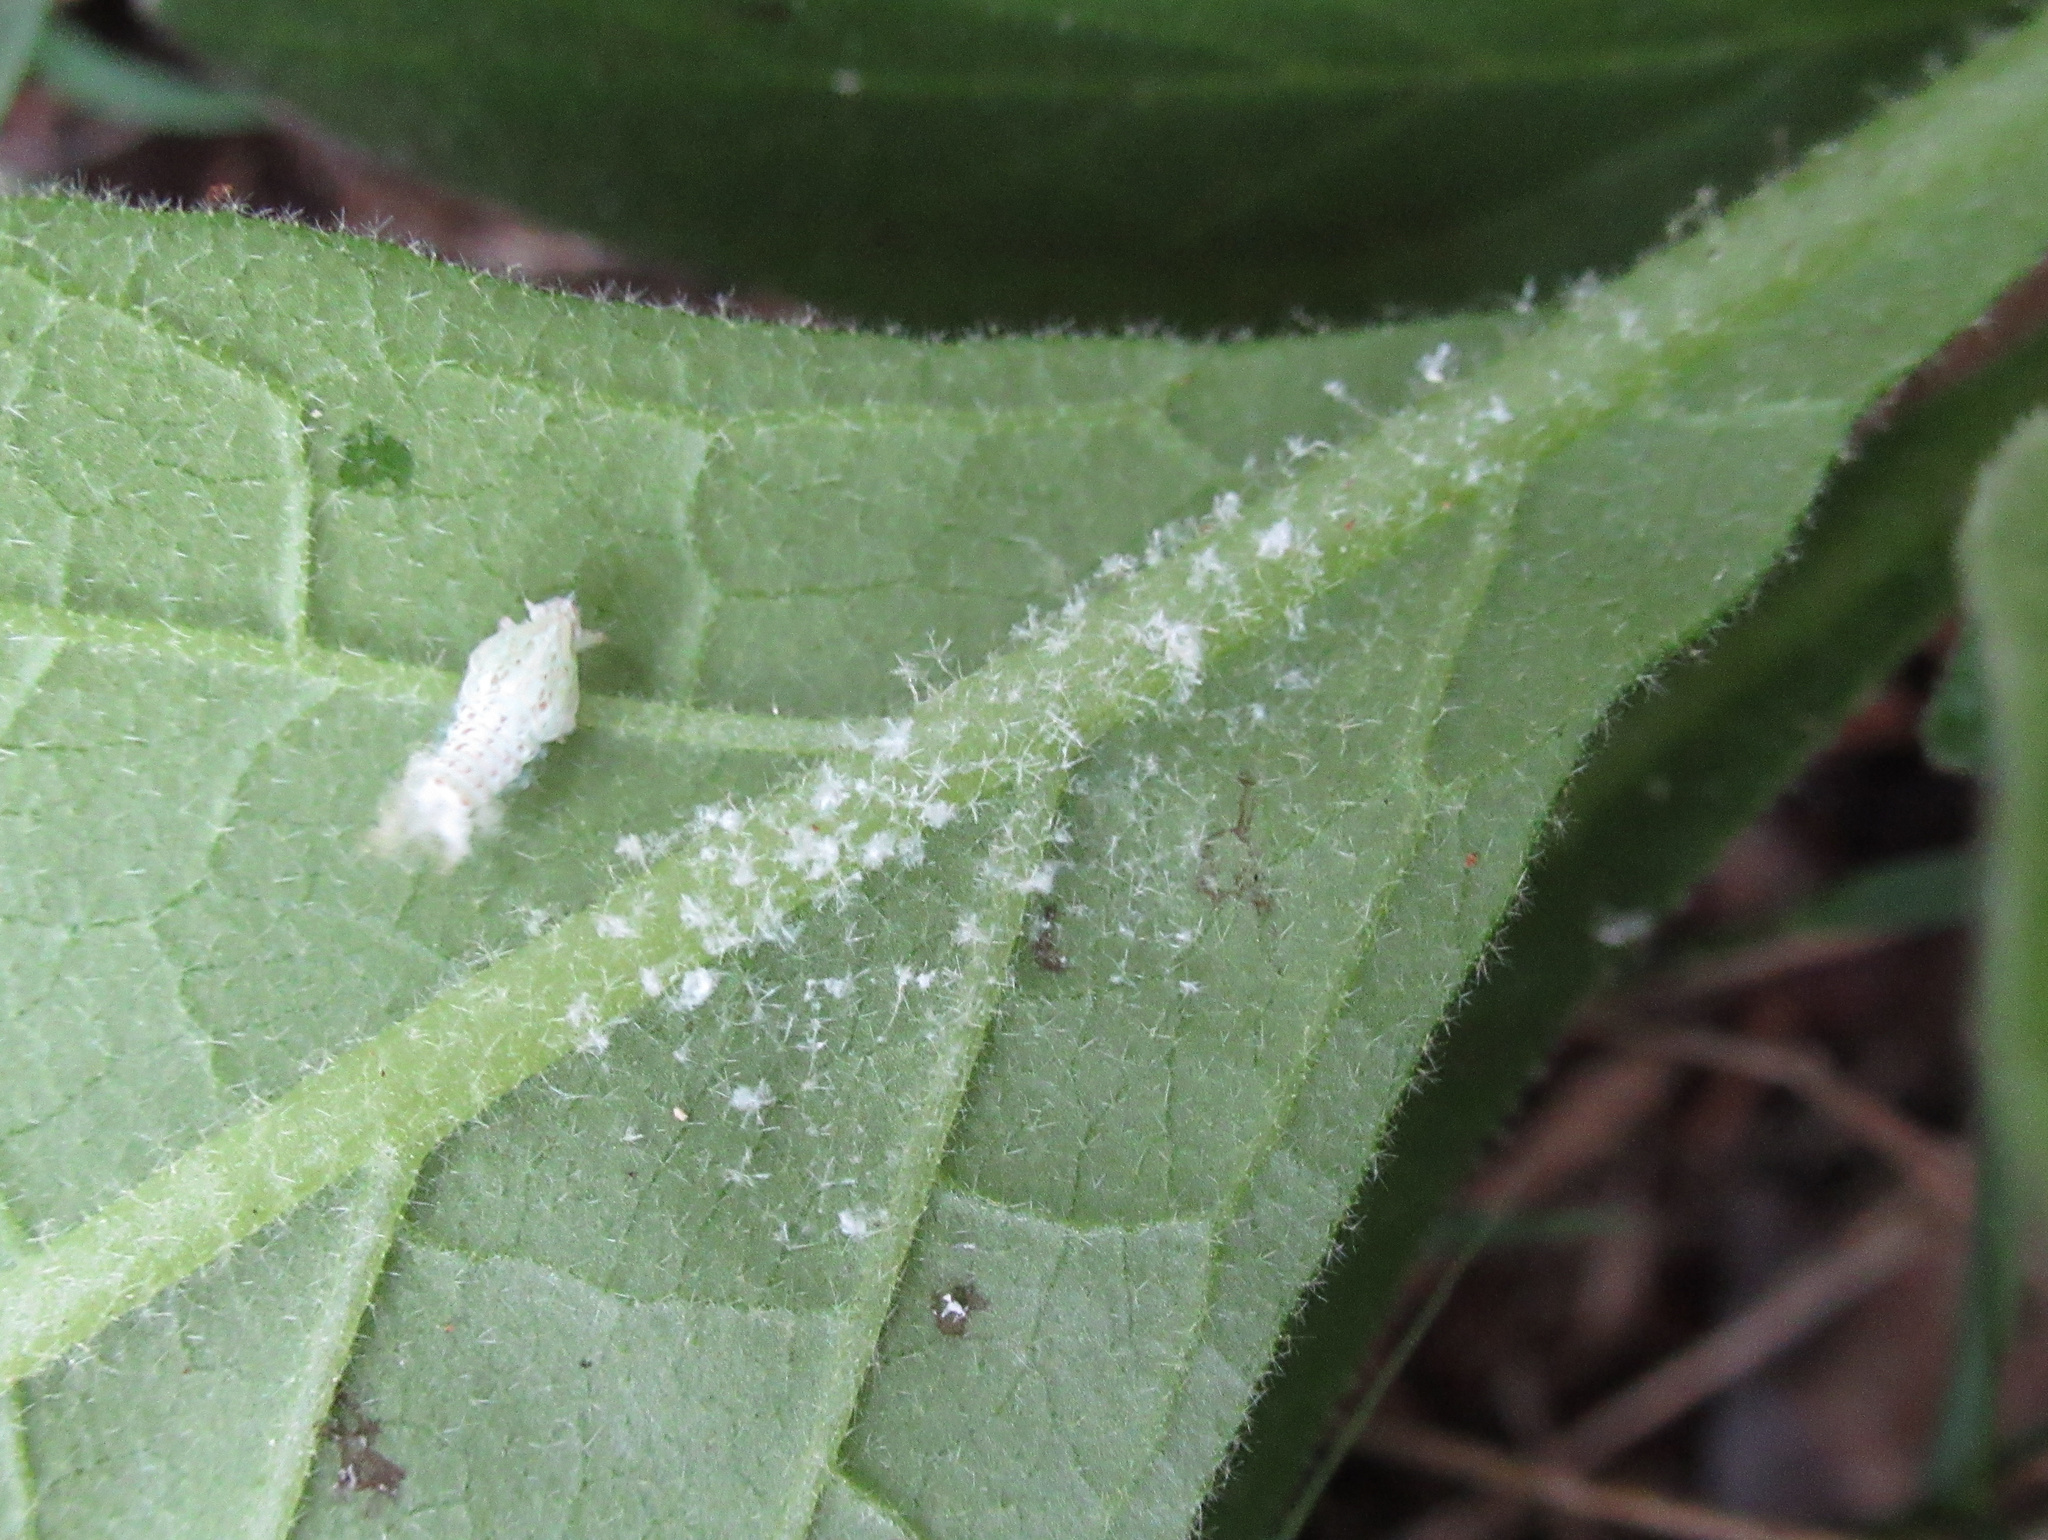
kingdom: Animalia
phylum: Arthropoda
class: Insecta
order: Hemiptera
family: Flatidae
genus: Siphanta
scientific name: Siphanta acuta
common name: Torpedo bug
